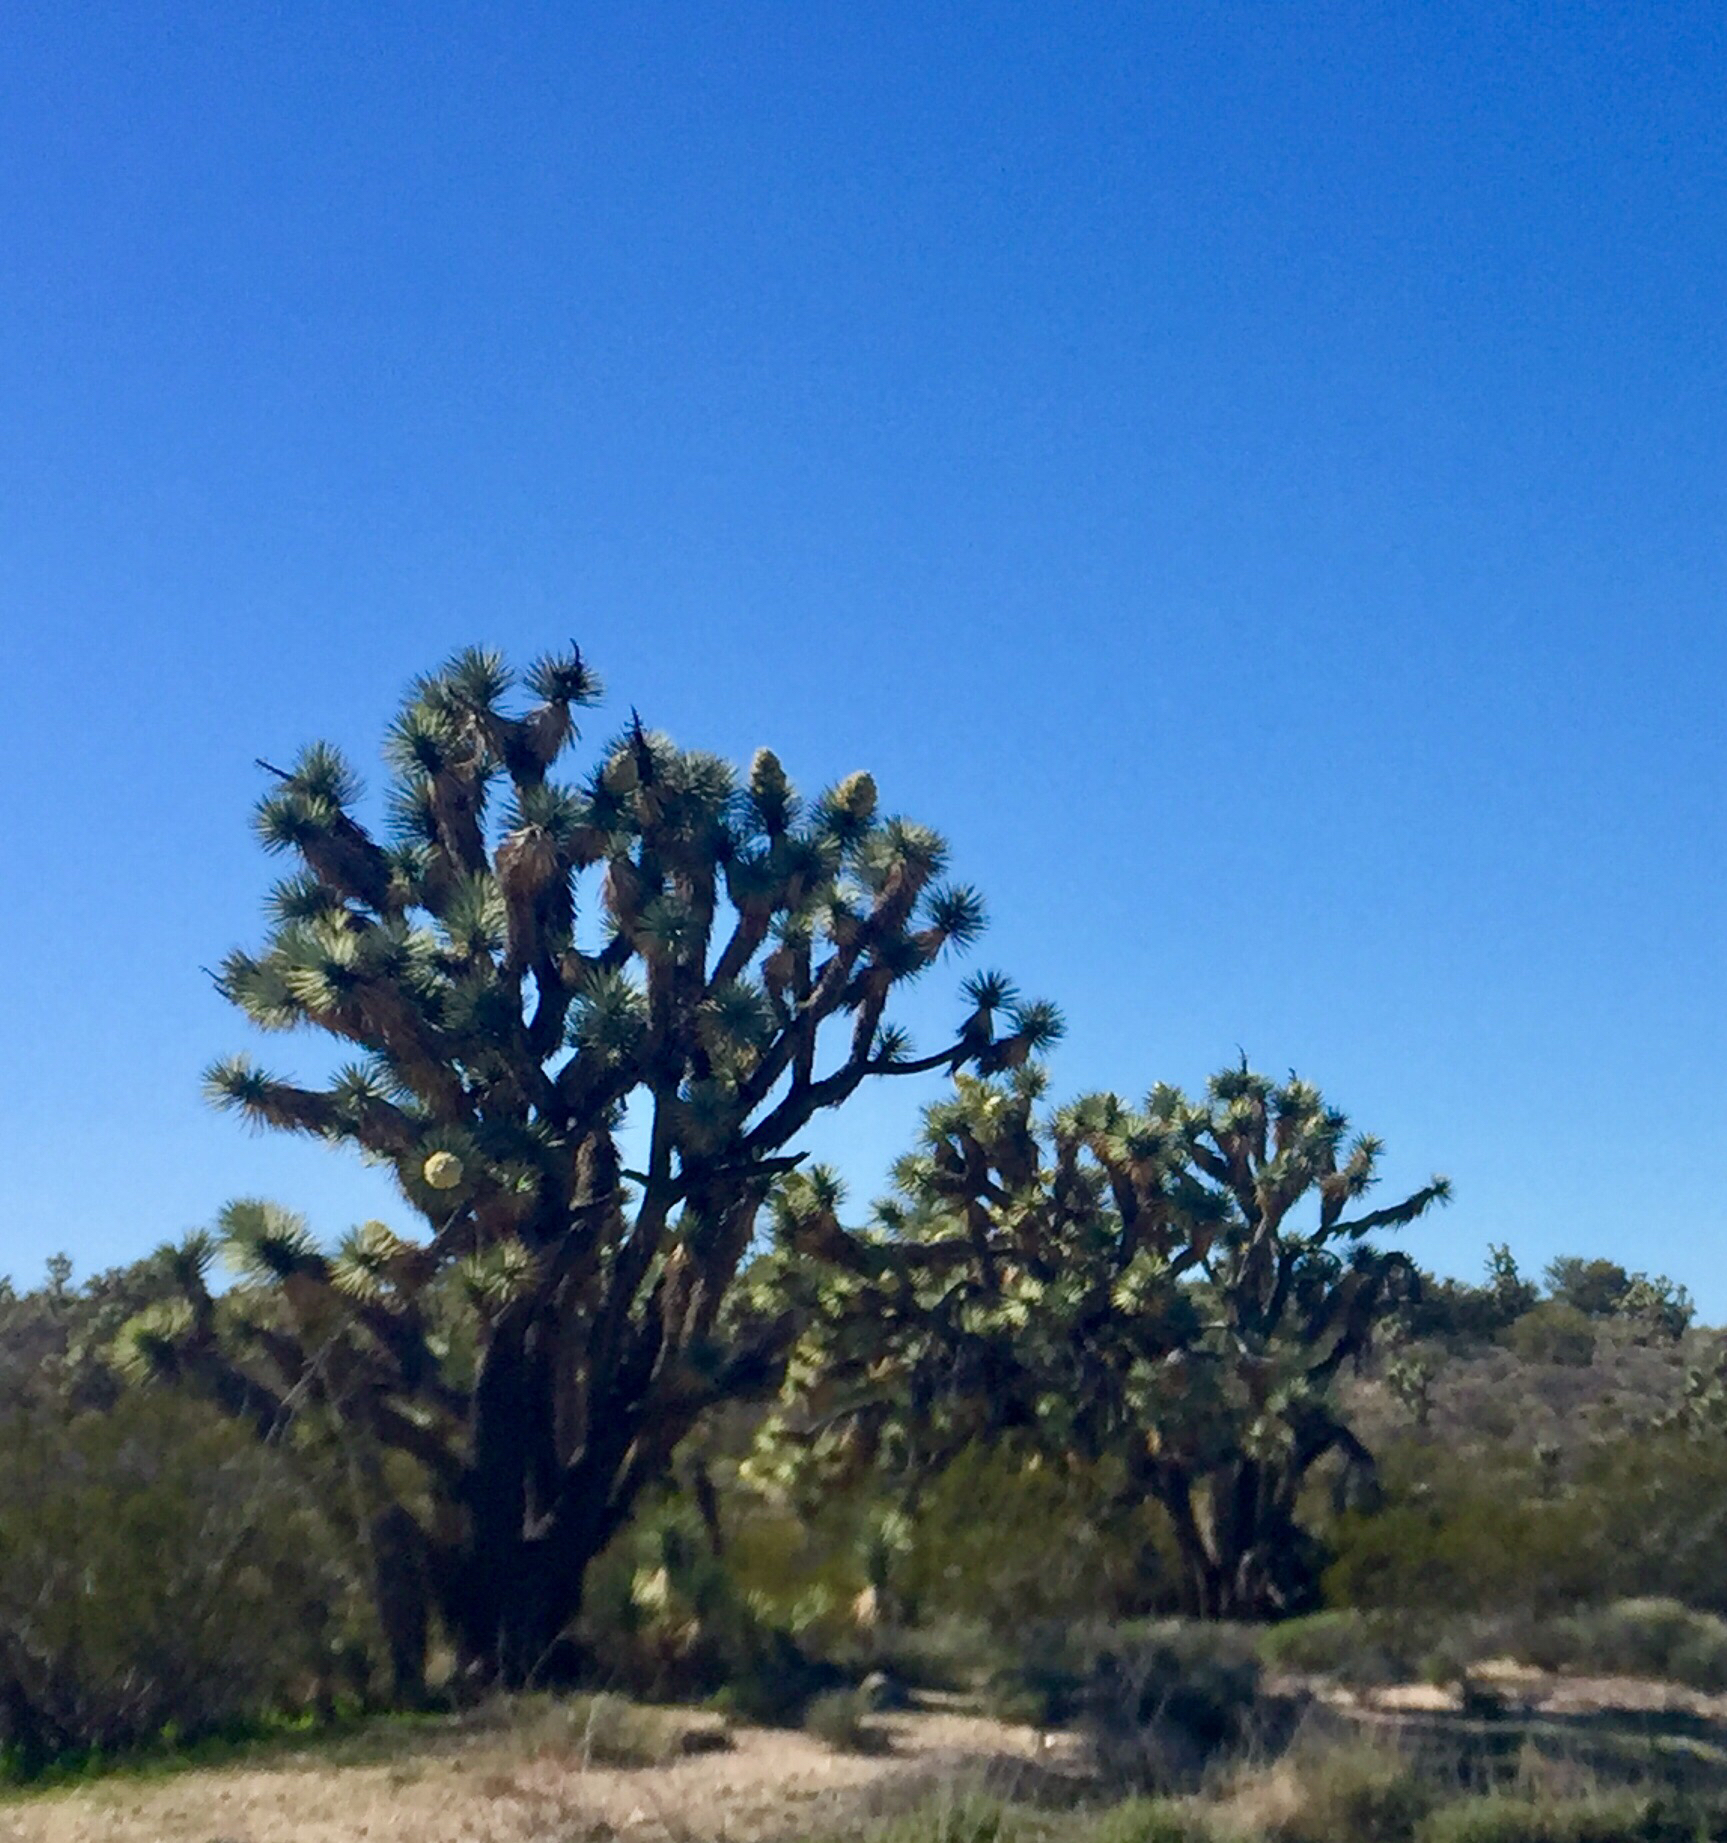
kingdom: Plantae
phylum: Tracheophyta
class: Liliopsida
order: Asparagales
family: Asparagaceae
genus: Yucca
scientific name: Yucca brevifolia
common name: Joshua tree
